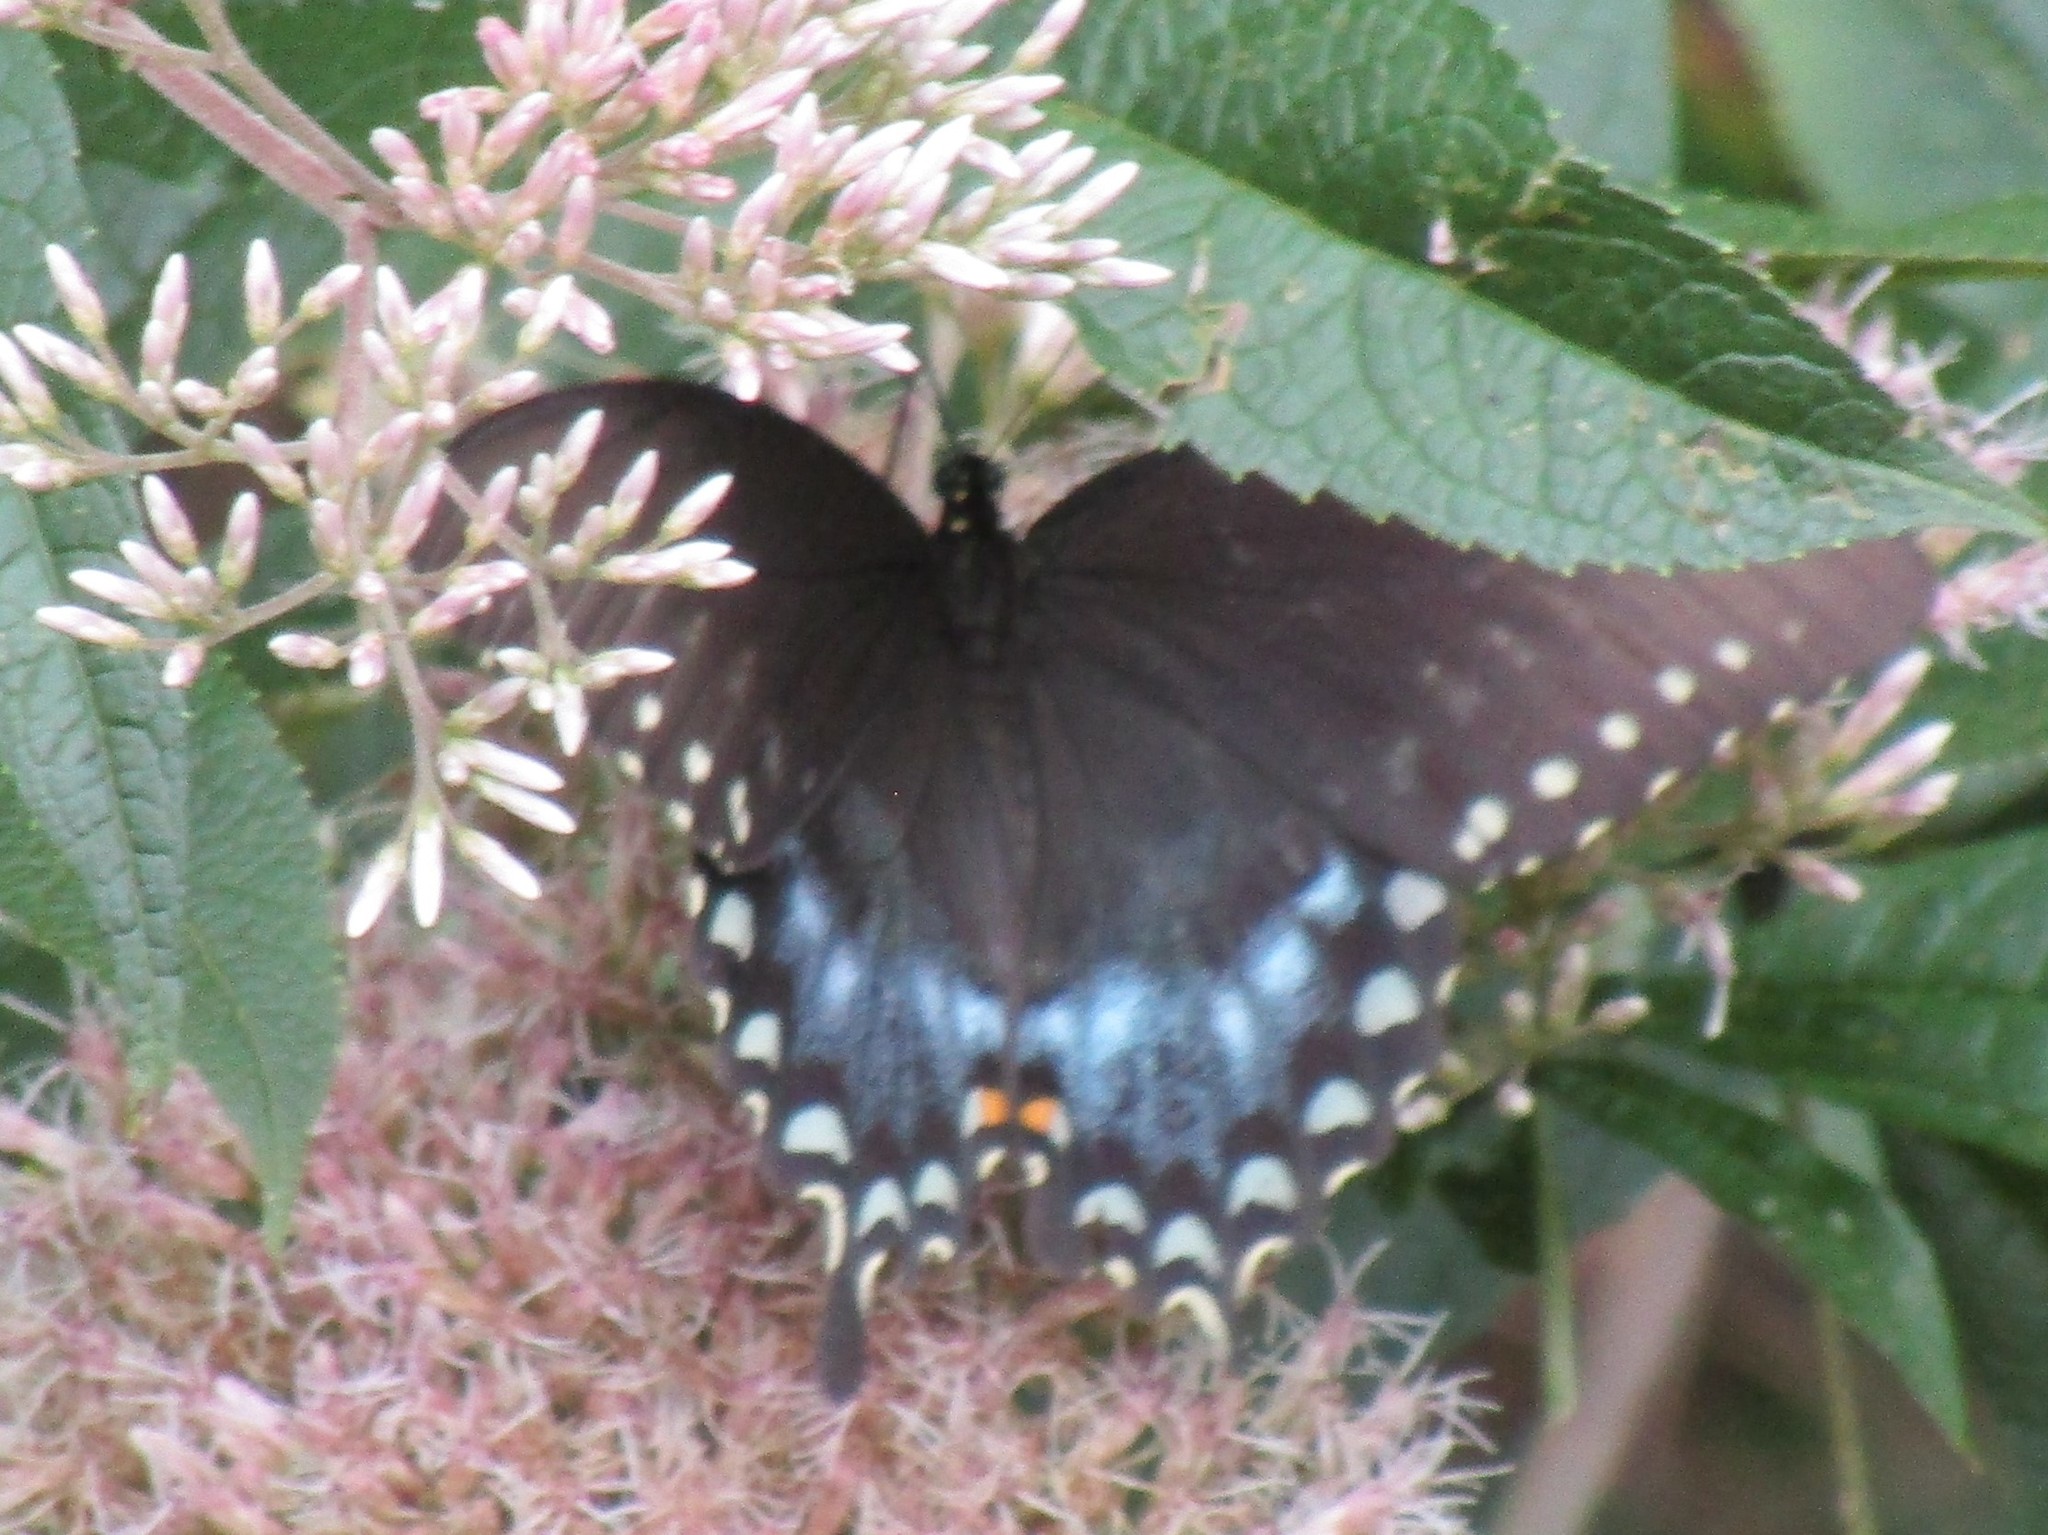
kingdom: Animalia
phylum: Arthropoda
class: Insecta
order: Lepidoptera
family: Papilionidae
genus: Papilio
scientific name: Papilio troilus
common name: Spicebush swallowtail
